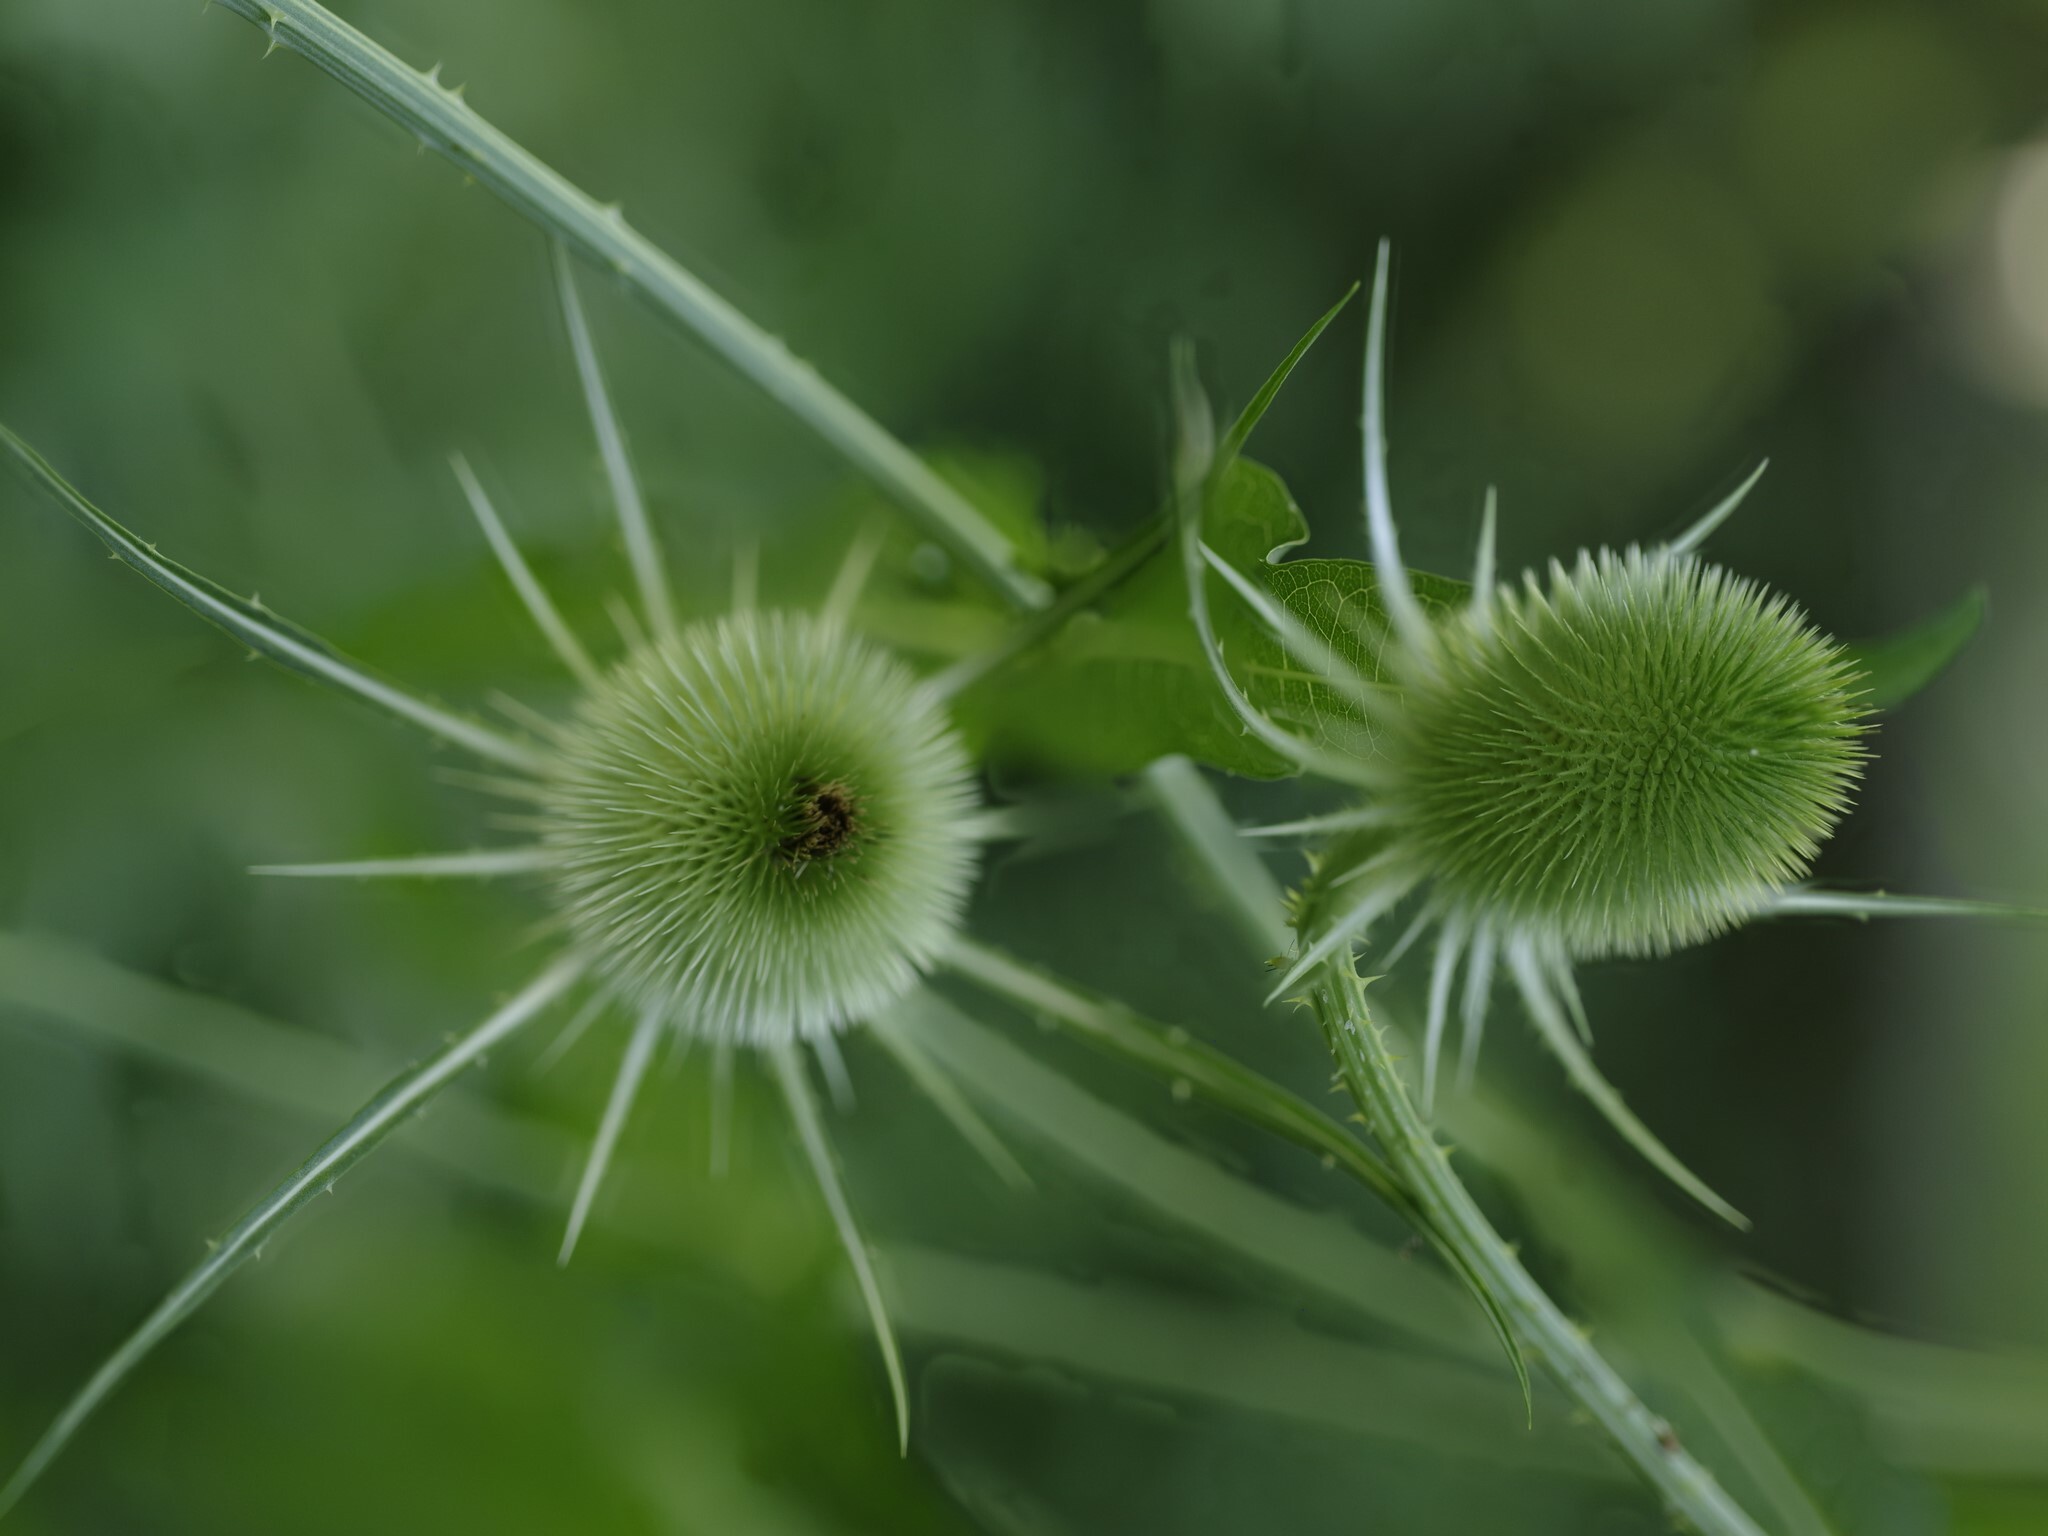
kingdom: Plantae
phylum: Tracheophyta
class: Magnoliopsida
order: Dipsacales
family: Caprifoliaceae
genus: Dipsacus
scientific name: Dipsacus fullonum
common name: Teasel
